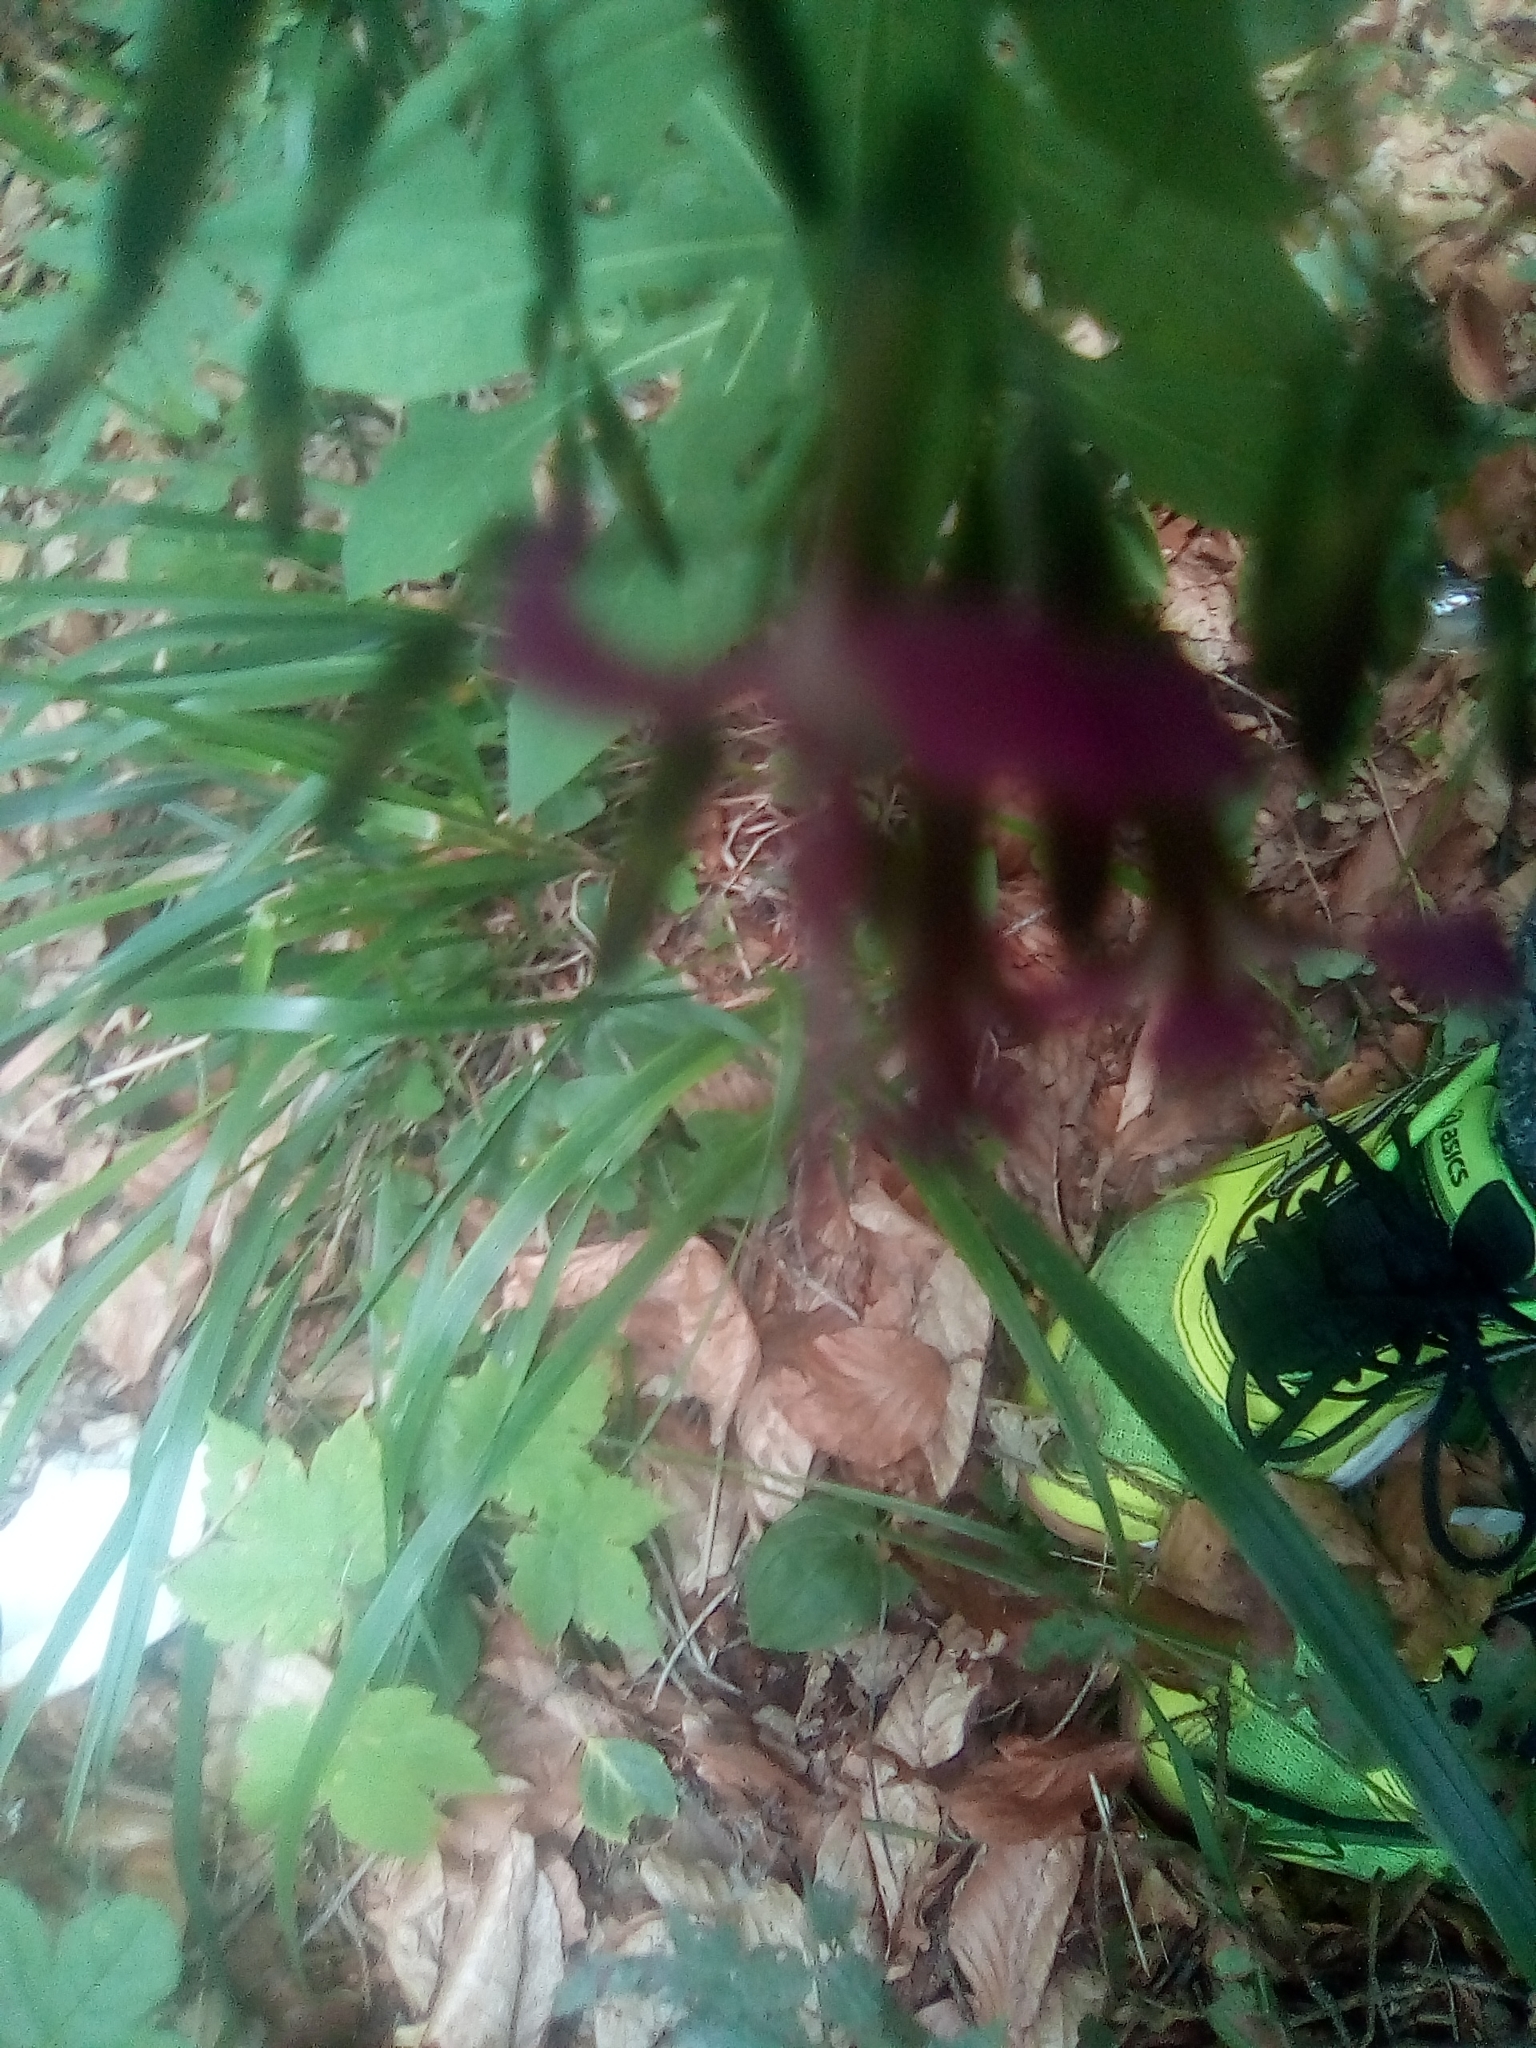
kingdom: Plantae
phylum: Tracheophyta
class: Magnoliopsida
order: Asterales
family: Asteraceae
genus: Prenanthes
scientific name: Prenanthes purpurea
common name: Purple lettuce
